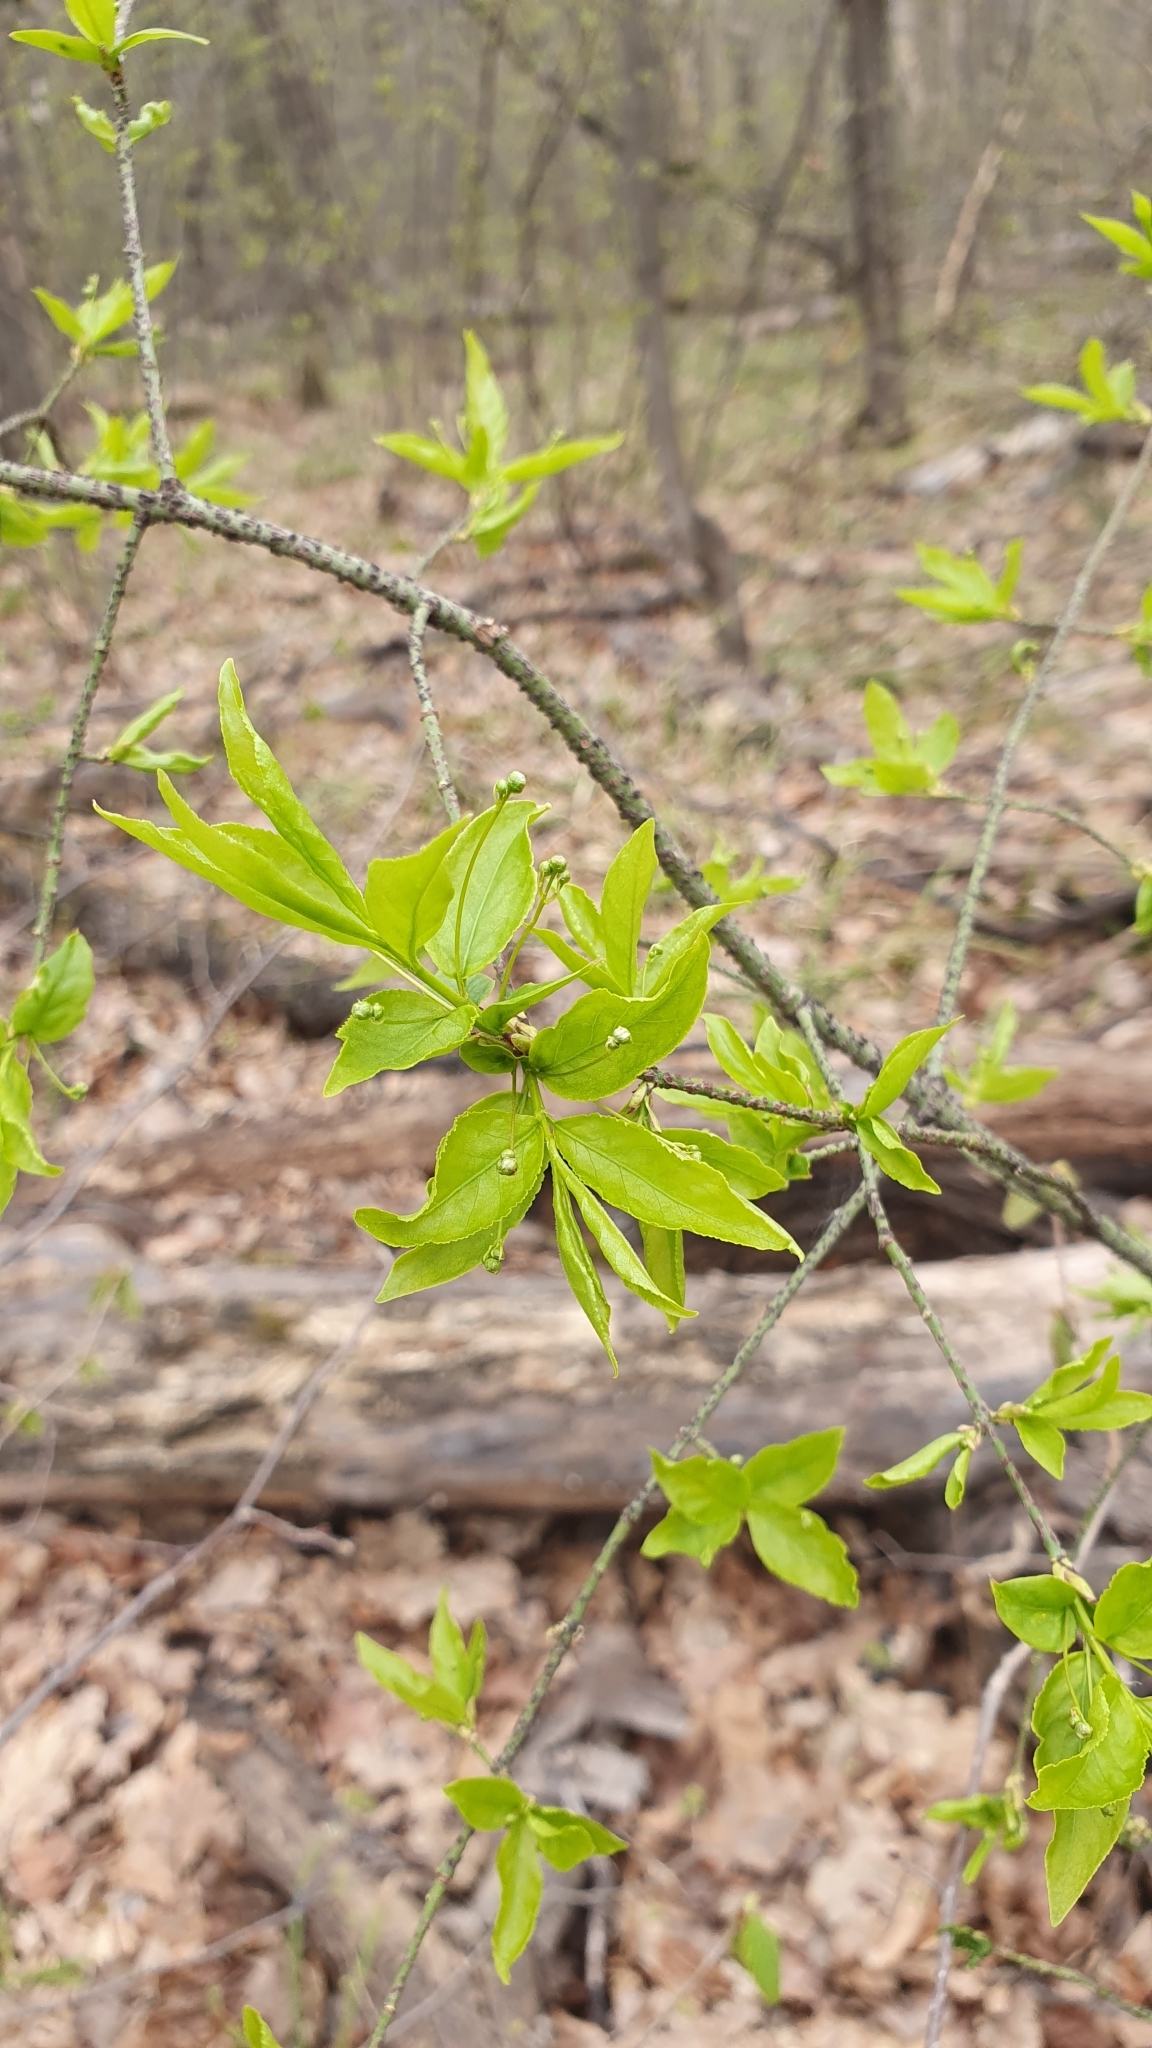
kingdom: Plantae
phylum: Tracheophyta
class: Magnoliopsida
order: Celastrales
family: Celastraceae
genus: Euonymus
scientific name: Euonymus verrucosus
